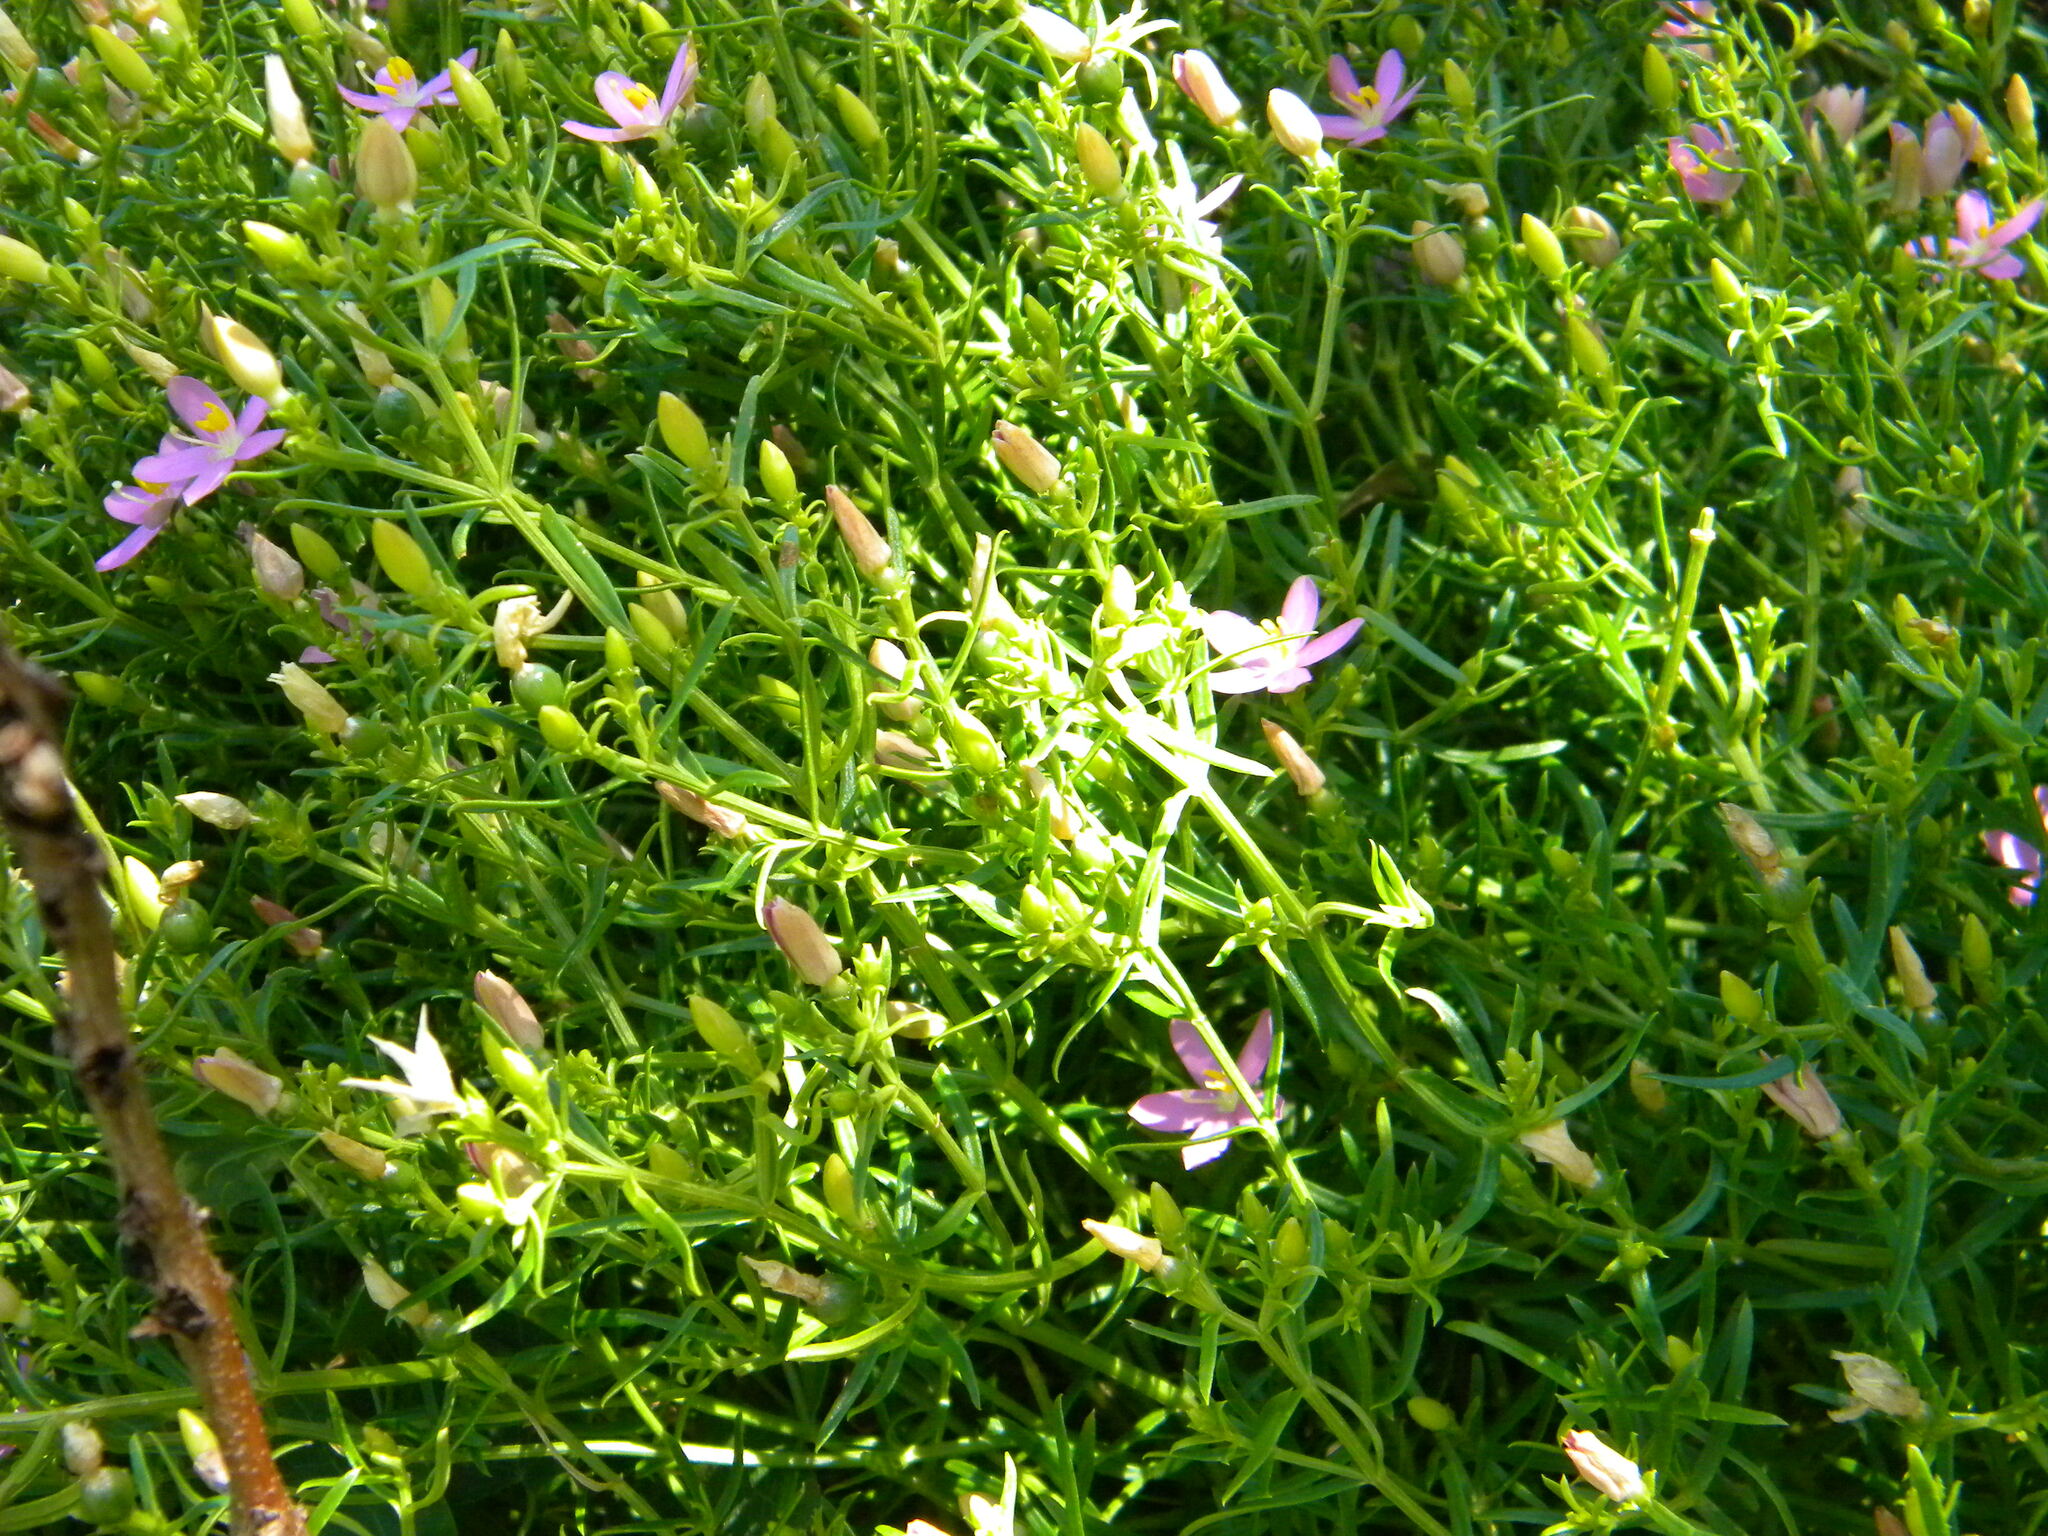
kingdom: Plantae
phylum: Tracheophyta
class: Magnoliopsida
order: Gentianales
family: Gentianaceae
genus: Chironia
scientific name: Chironia baccifera
